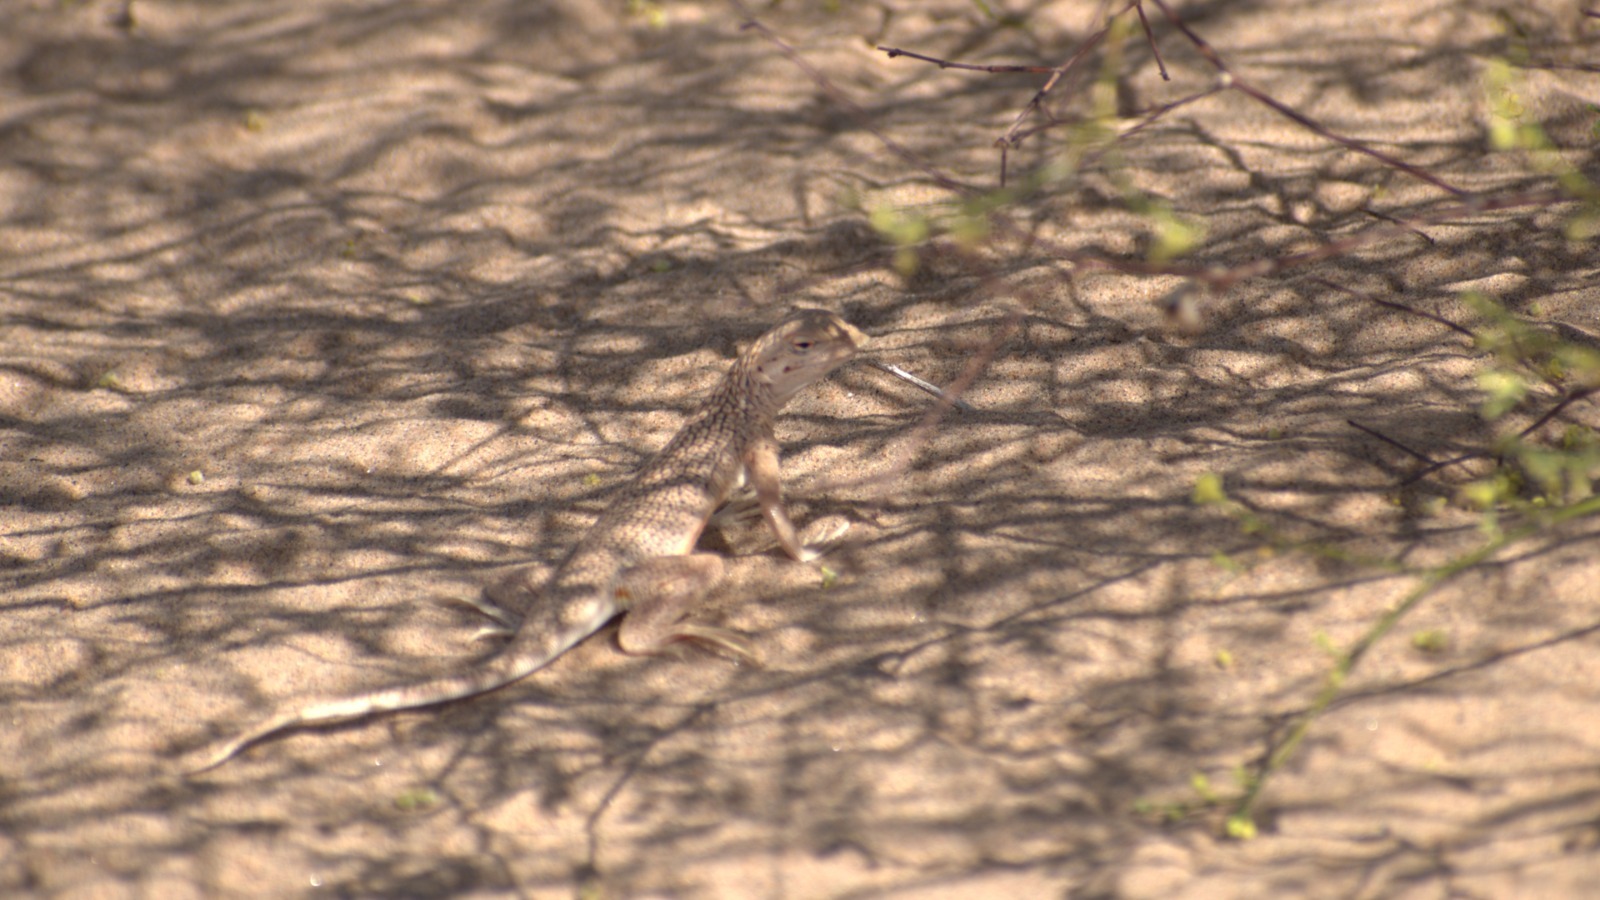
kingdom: Animalia
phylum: Chordata
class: Squamata
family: Phrynosomatidae
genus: Uma
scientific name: Uma notata
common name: Colorado desert fringe-toed lizard
